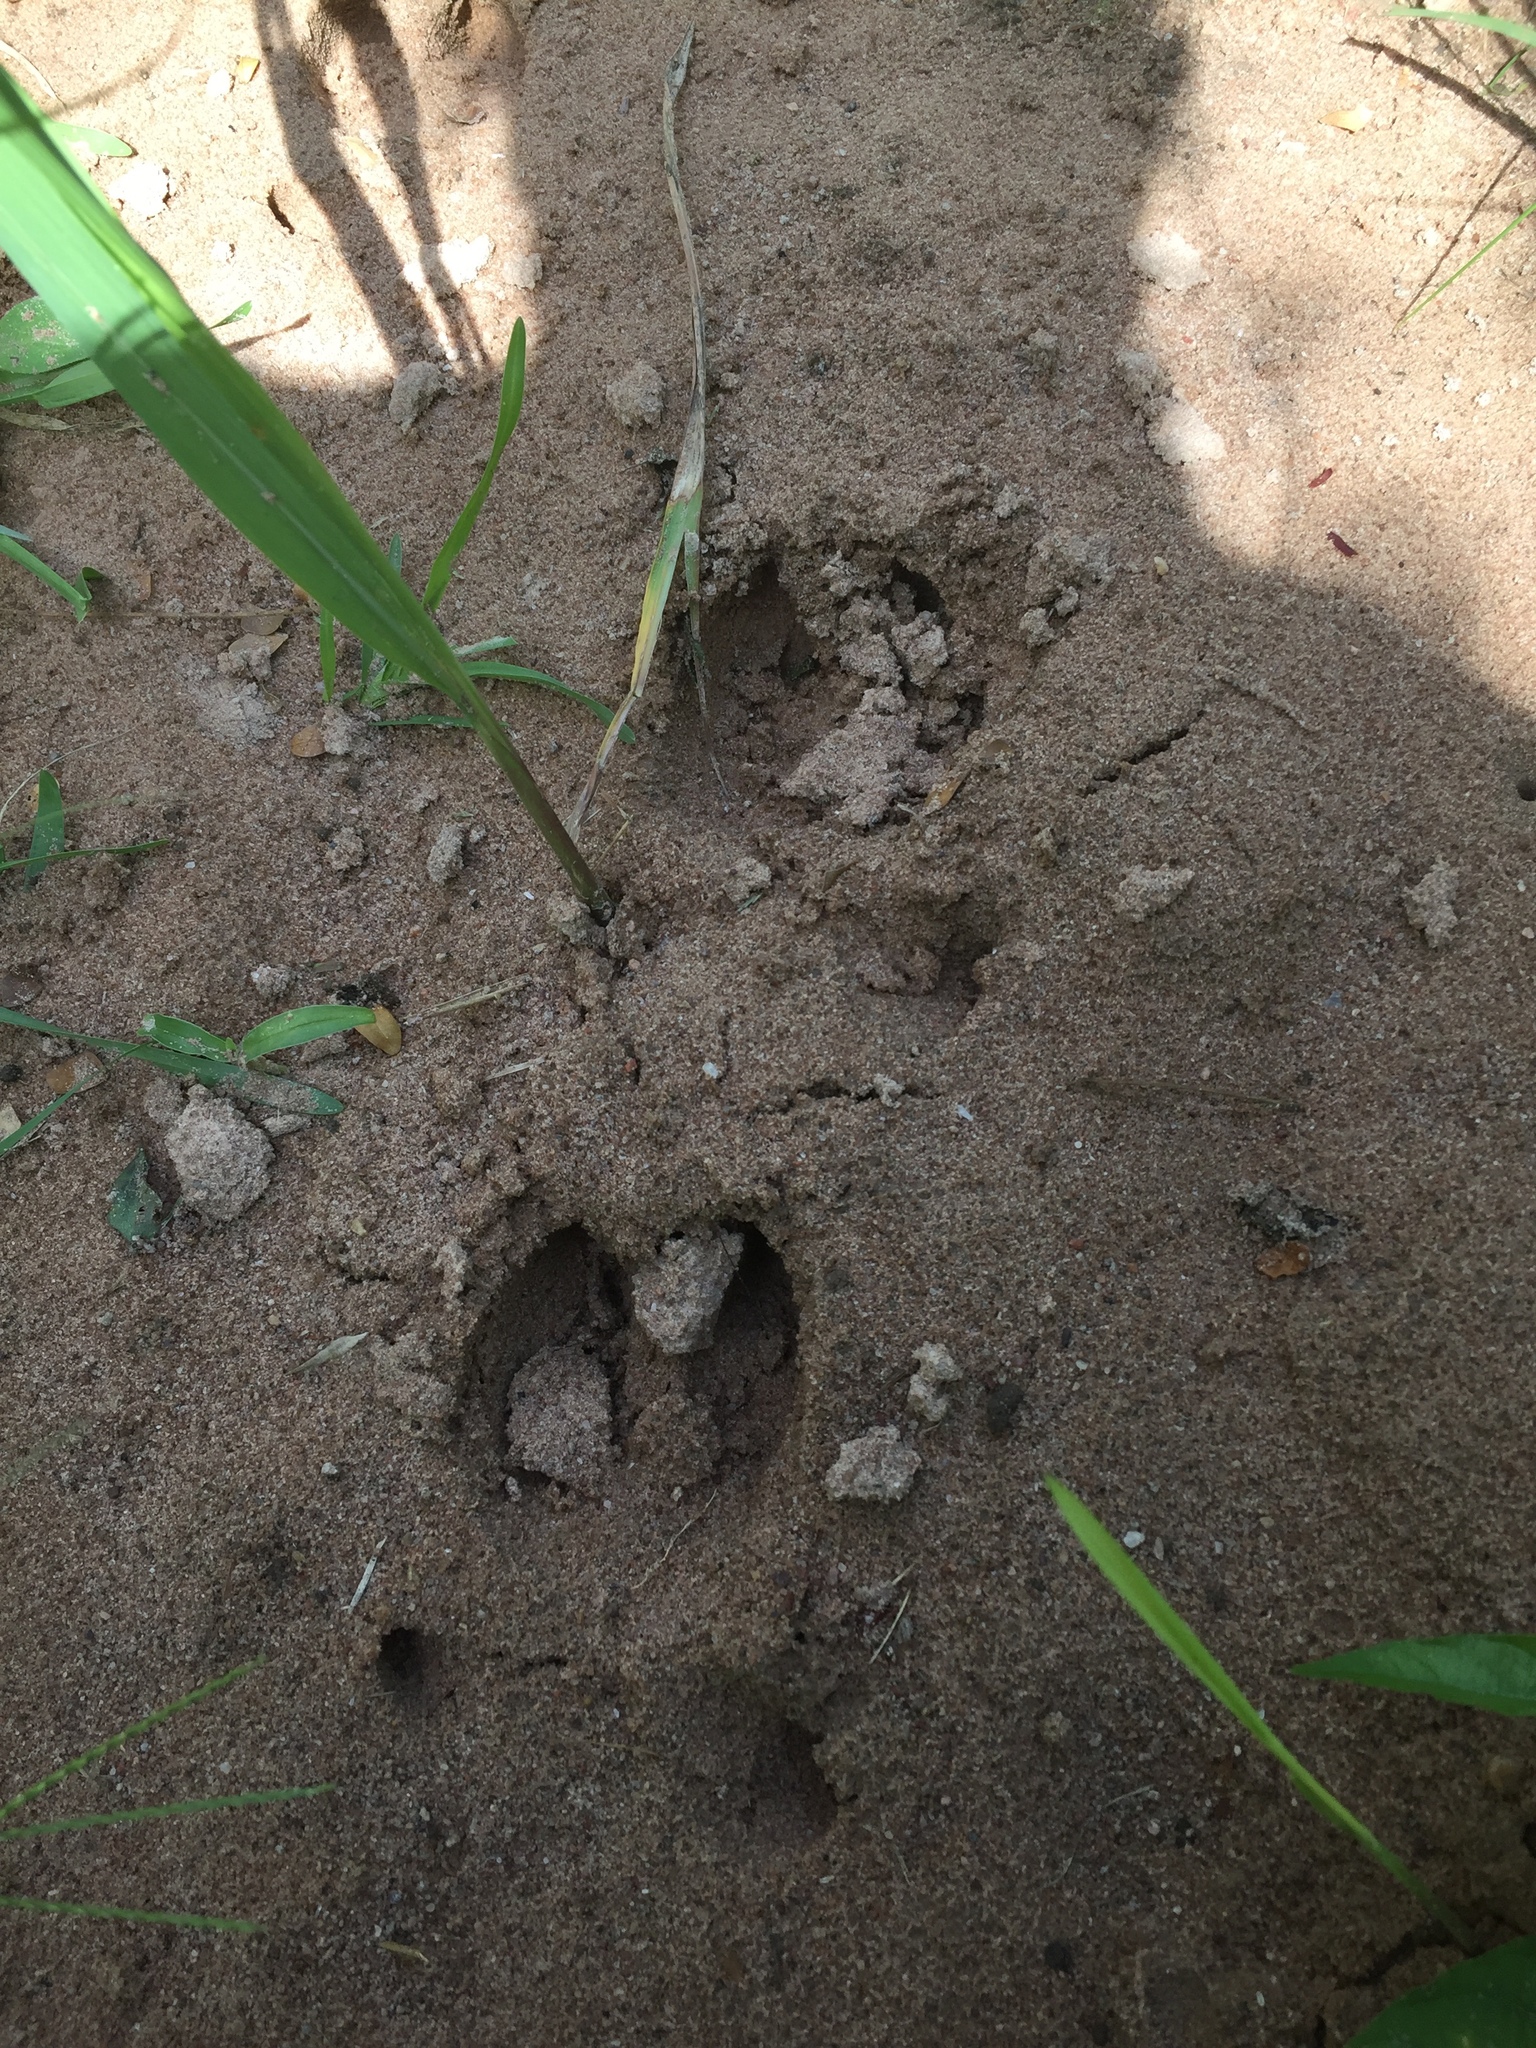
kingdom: Animalia
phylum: Chordata
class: Mammalia
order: Artiodactyla
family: Suidae
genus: Potamochoerus
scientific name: Potamochoerus larvatus
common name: Bushpig
